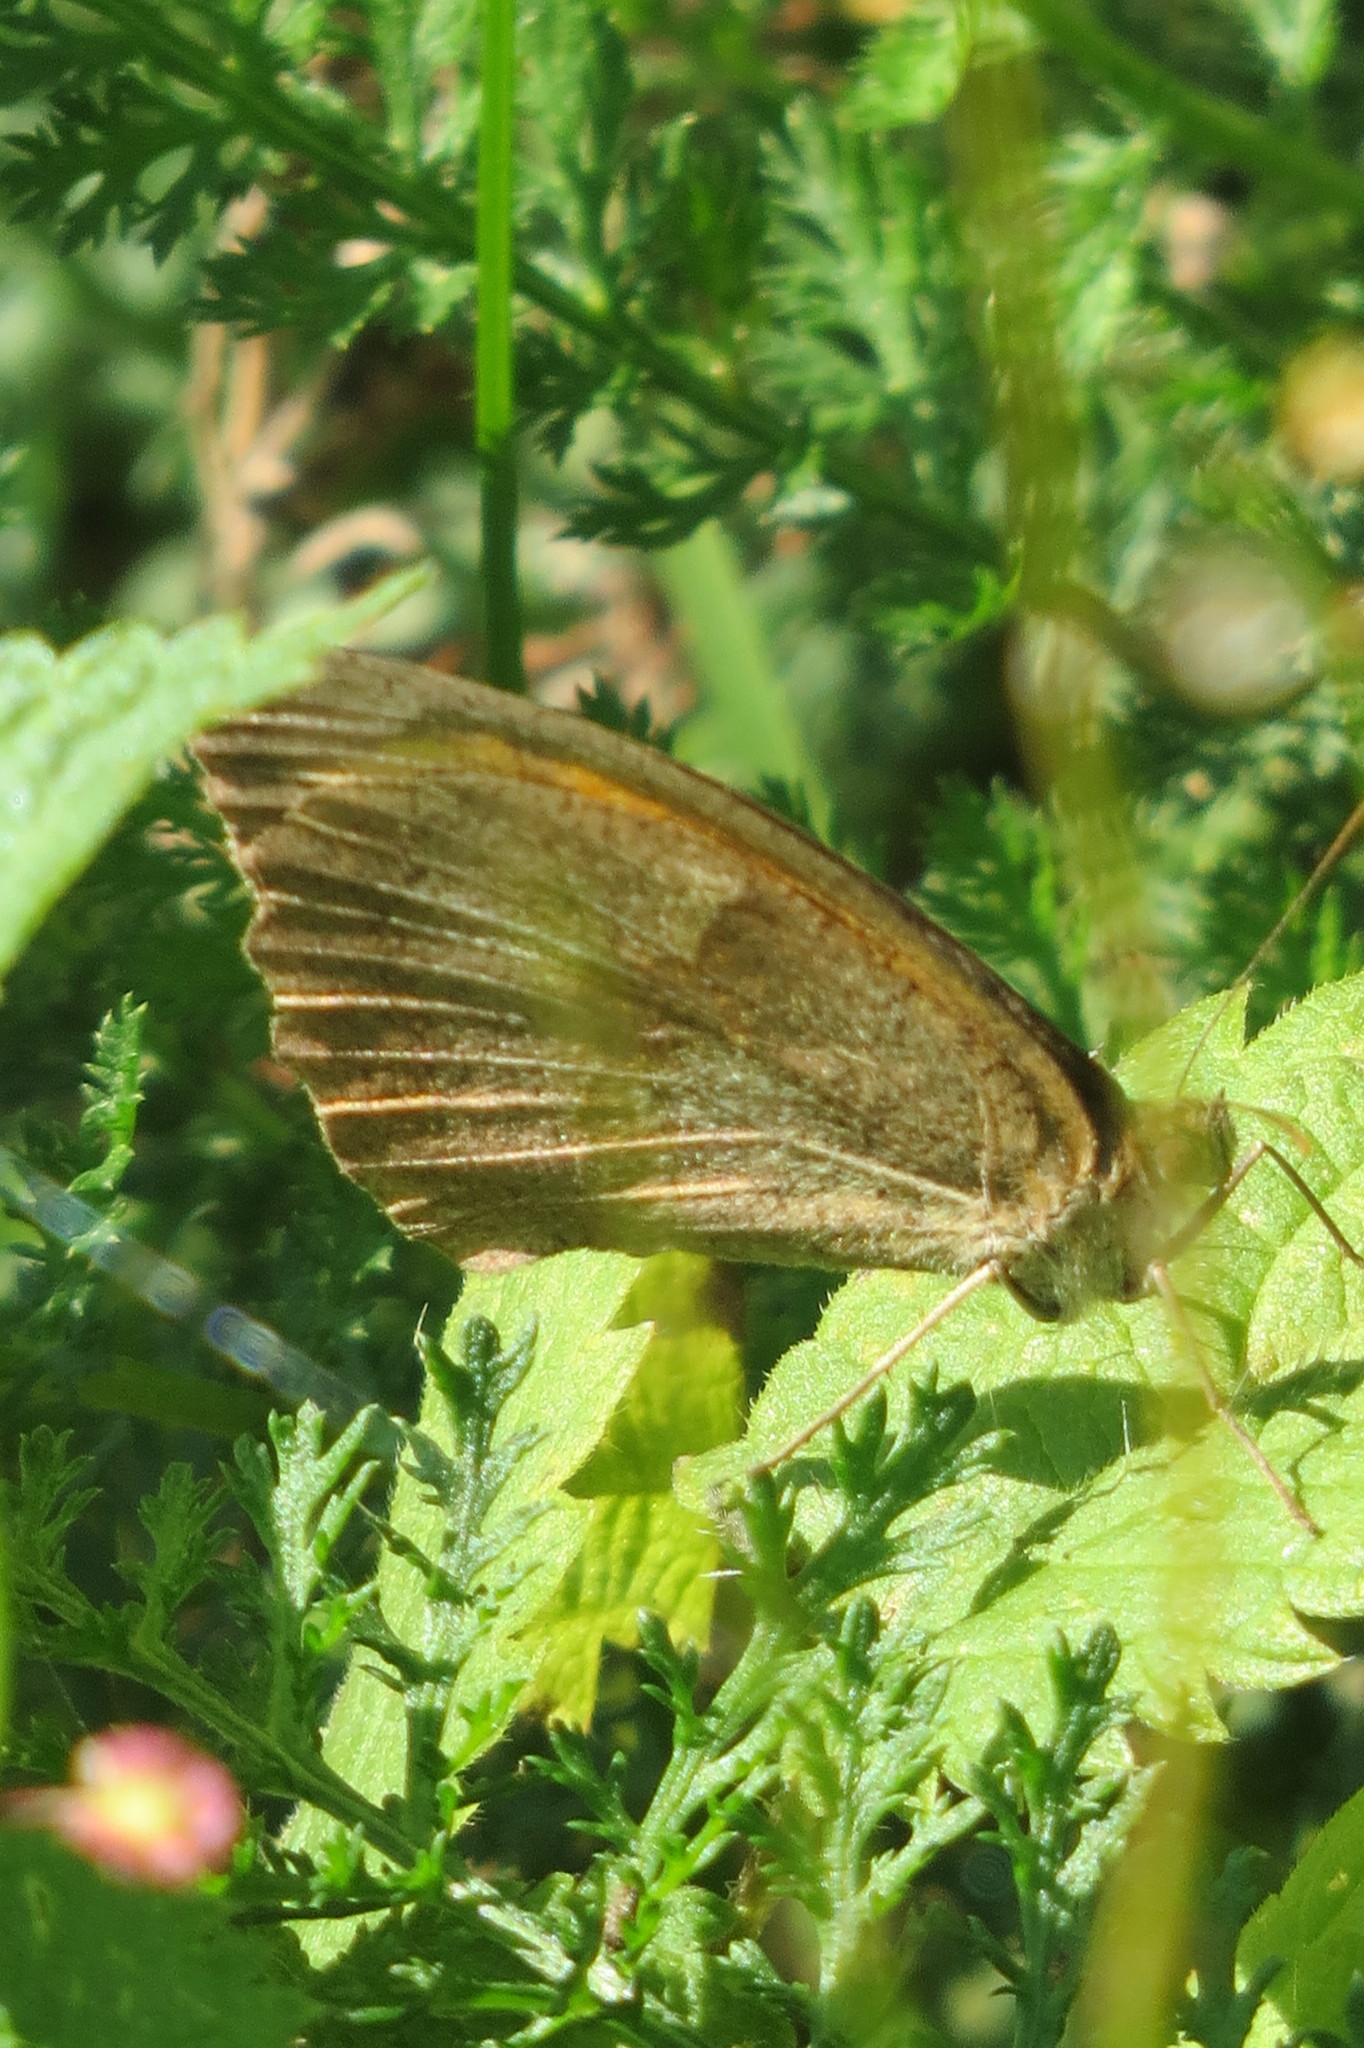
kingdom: Animalia
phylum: Arthropoda
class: Insecta
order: Lepidoptera
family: Nymphalidae
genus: Maniola
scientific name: Maniola jurtina
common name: Meadow brown
